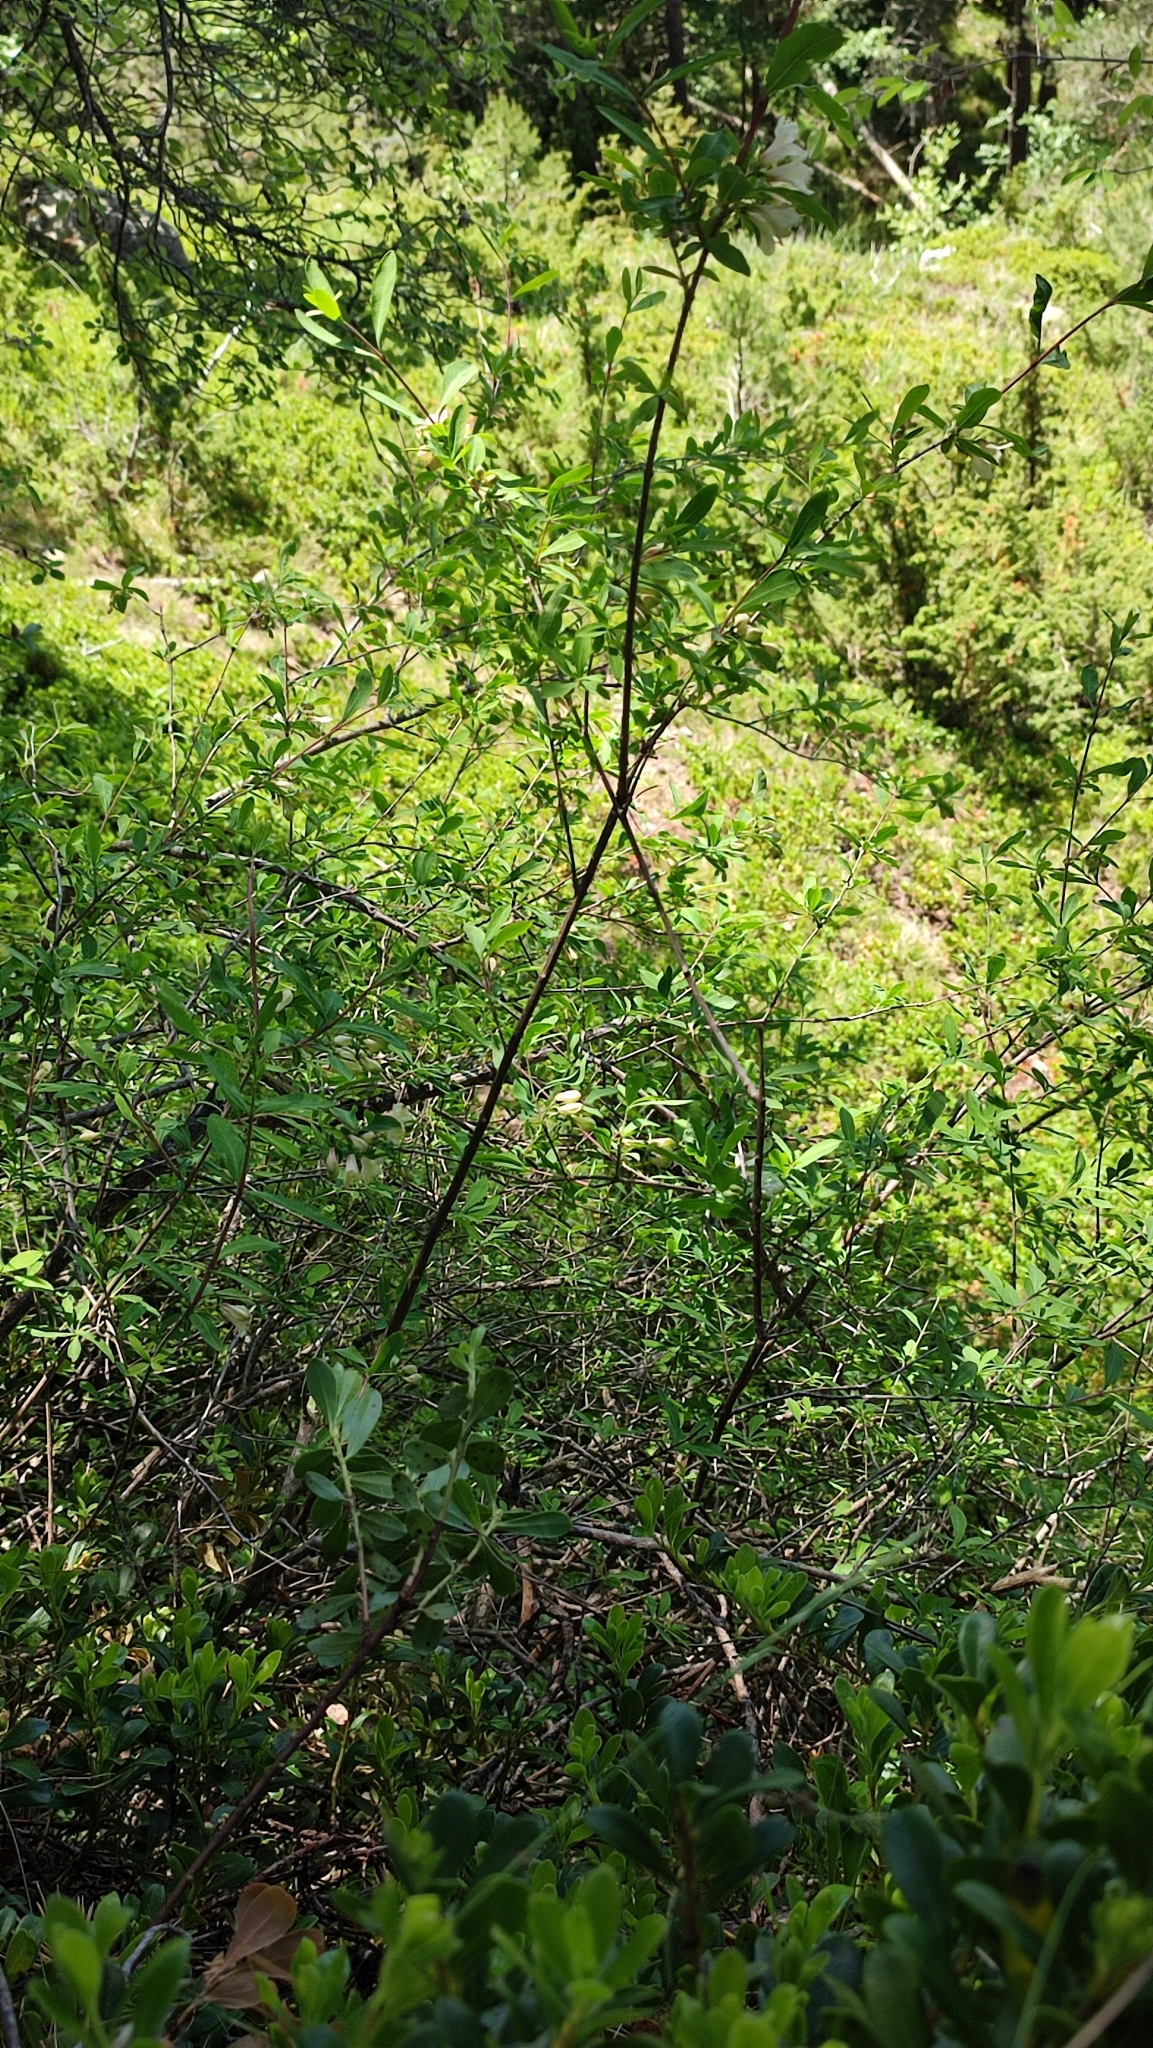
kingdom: Plantae
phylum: Tracheophyta
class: Magnoliopsida
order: Dipsacales
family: Caprifoliaceae
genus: Lonicera
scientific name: Lonicera pyrenaica
